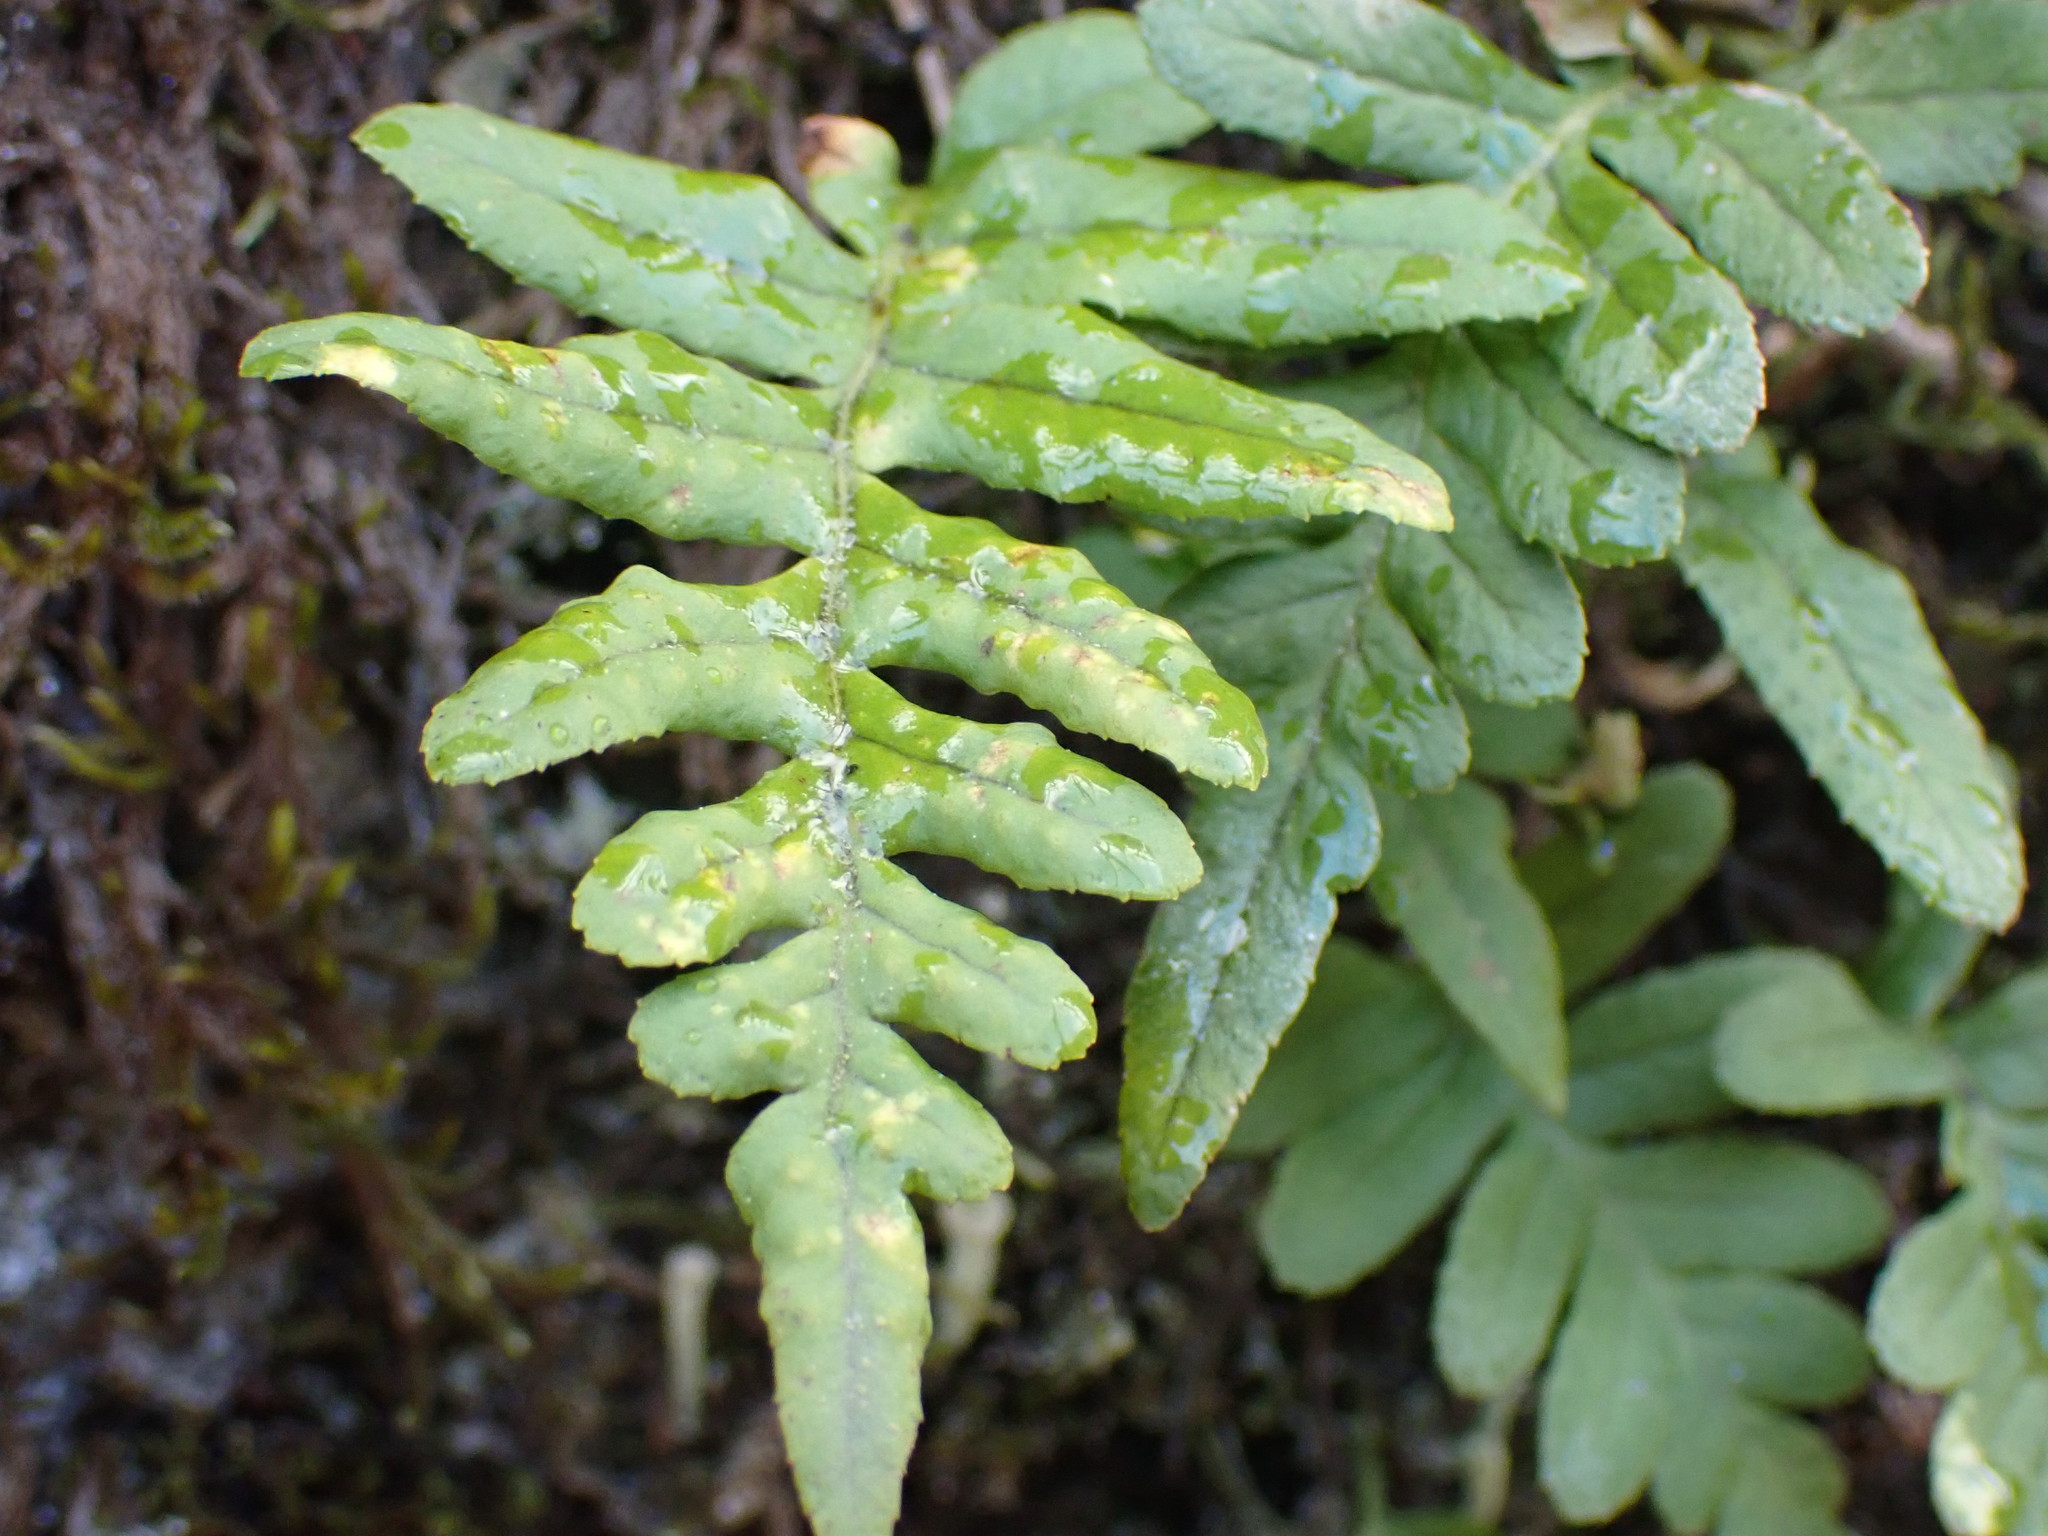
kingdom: Plantae
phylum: Tracheophyta
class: Polypodiopsida
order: Polypodiales
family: Polypodiaceae
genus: Polypodium
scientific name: Polypodium glycyrrhiza
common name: Licorice fern
